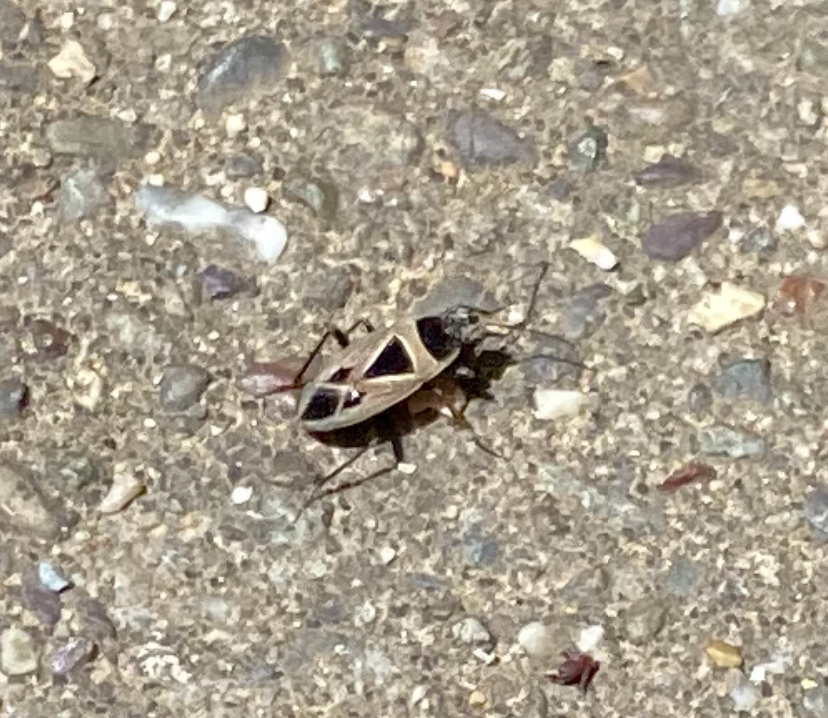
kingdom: Animalia
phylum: Arthropoda
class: Insecta
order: Hemiptera
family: Rhyparochromidae
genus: Xanthochilus
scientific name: Xanthochilus saturnius
